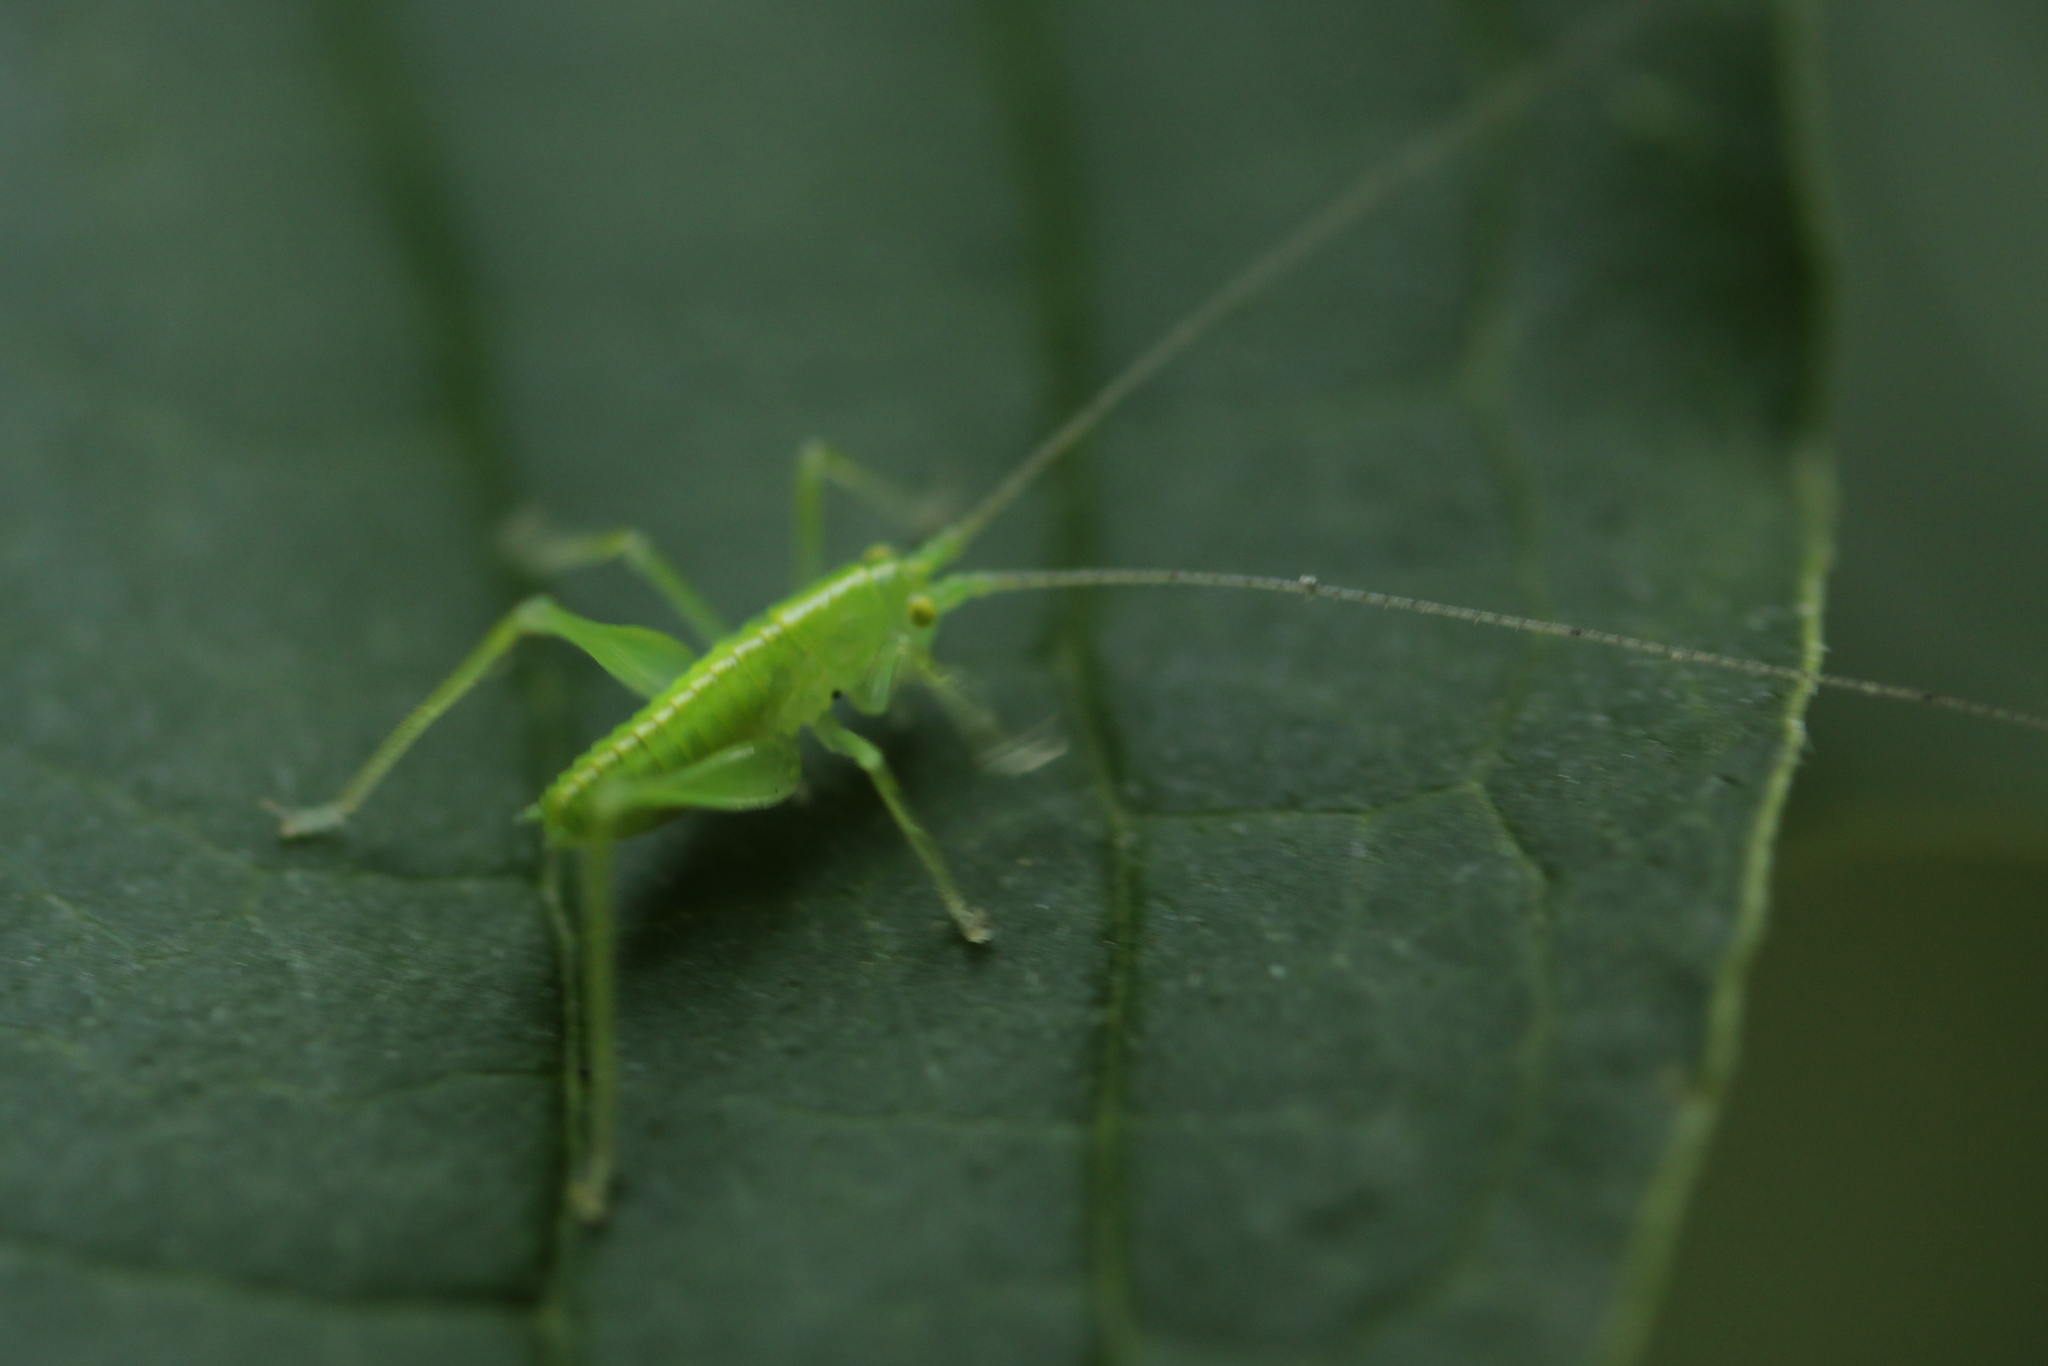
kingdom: Animalia
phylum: Arthropoda
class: Insecta
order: Orthoptera
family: Tettigoniidae
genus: Meconema
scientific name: Meconema meridionale
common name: Southern oak bush-cricket
